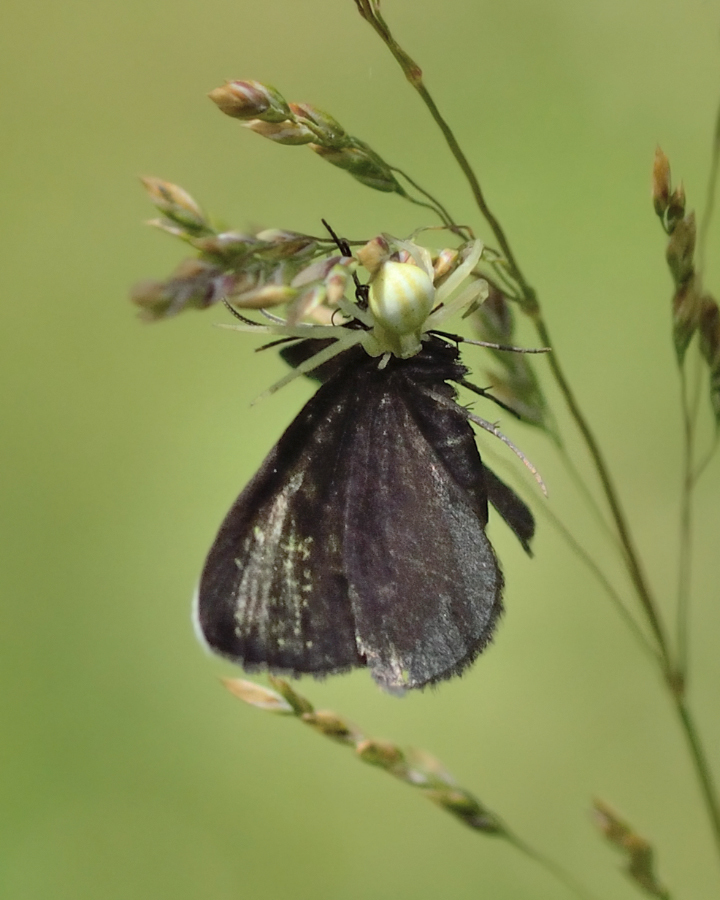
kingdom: Animalia
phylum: Arthropoda
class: Insecta
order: Lepidoptera
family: Geometridae
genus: Odezia
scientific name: Odezia atrata
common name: Chimney sweeper
